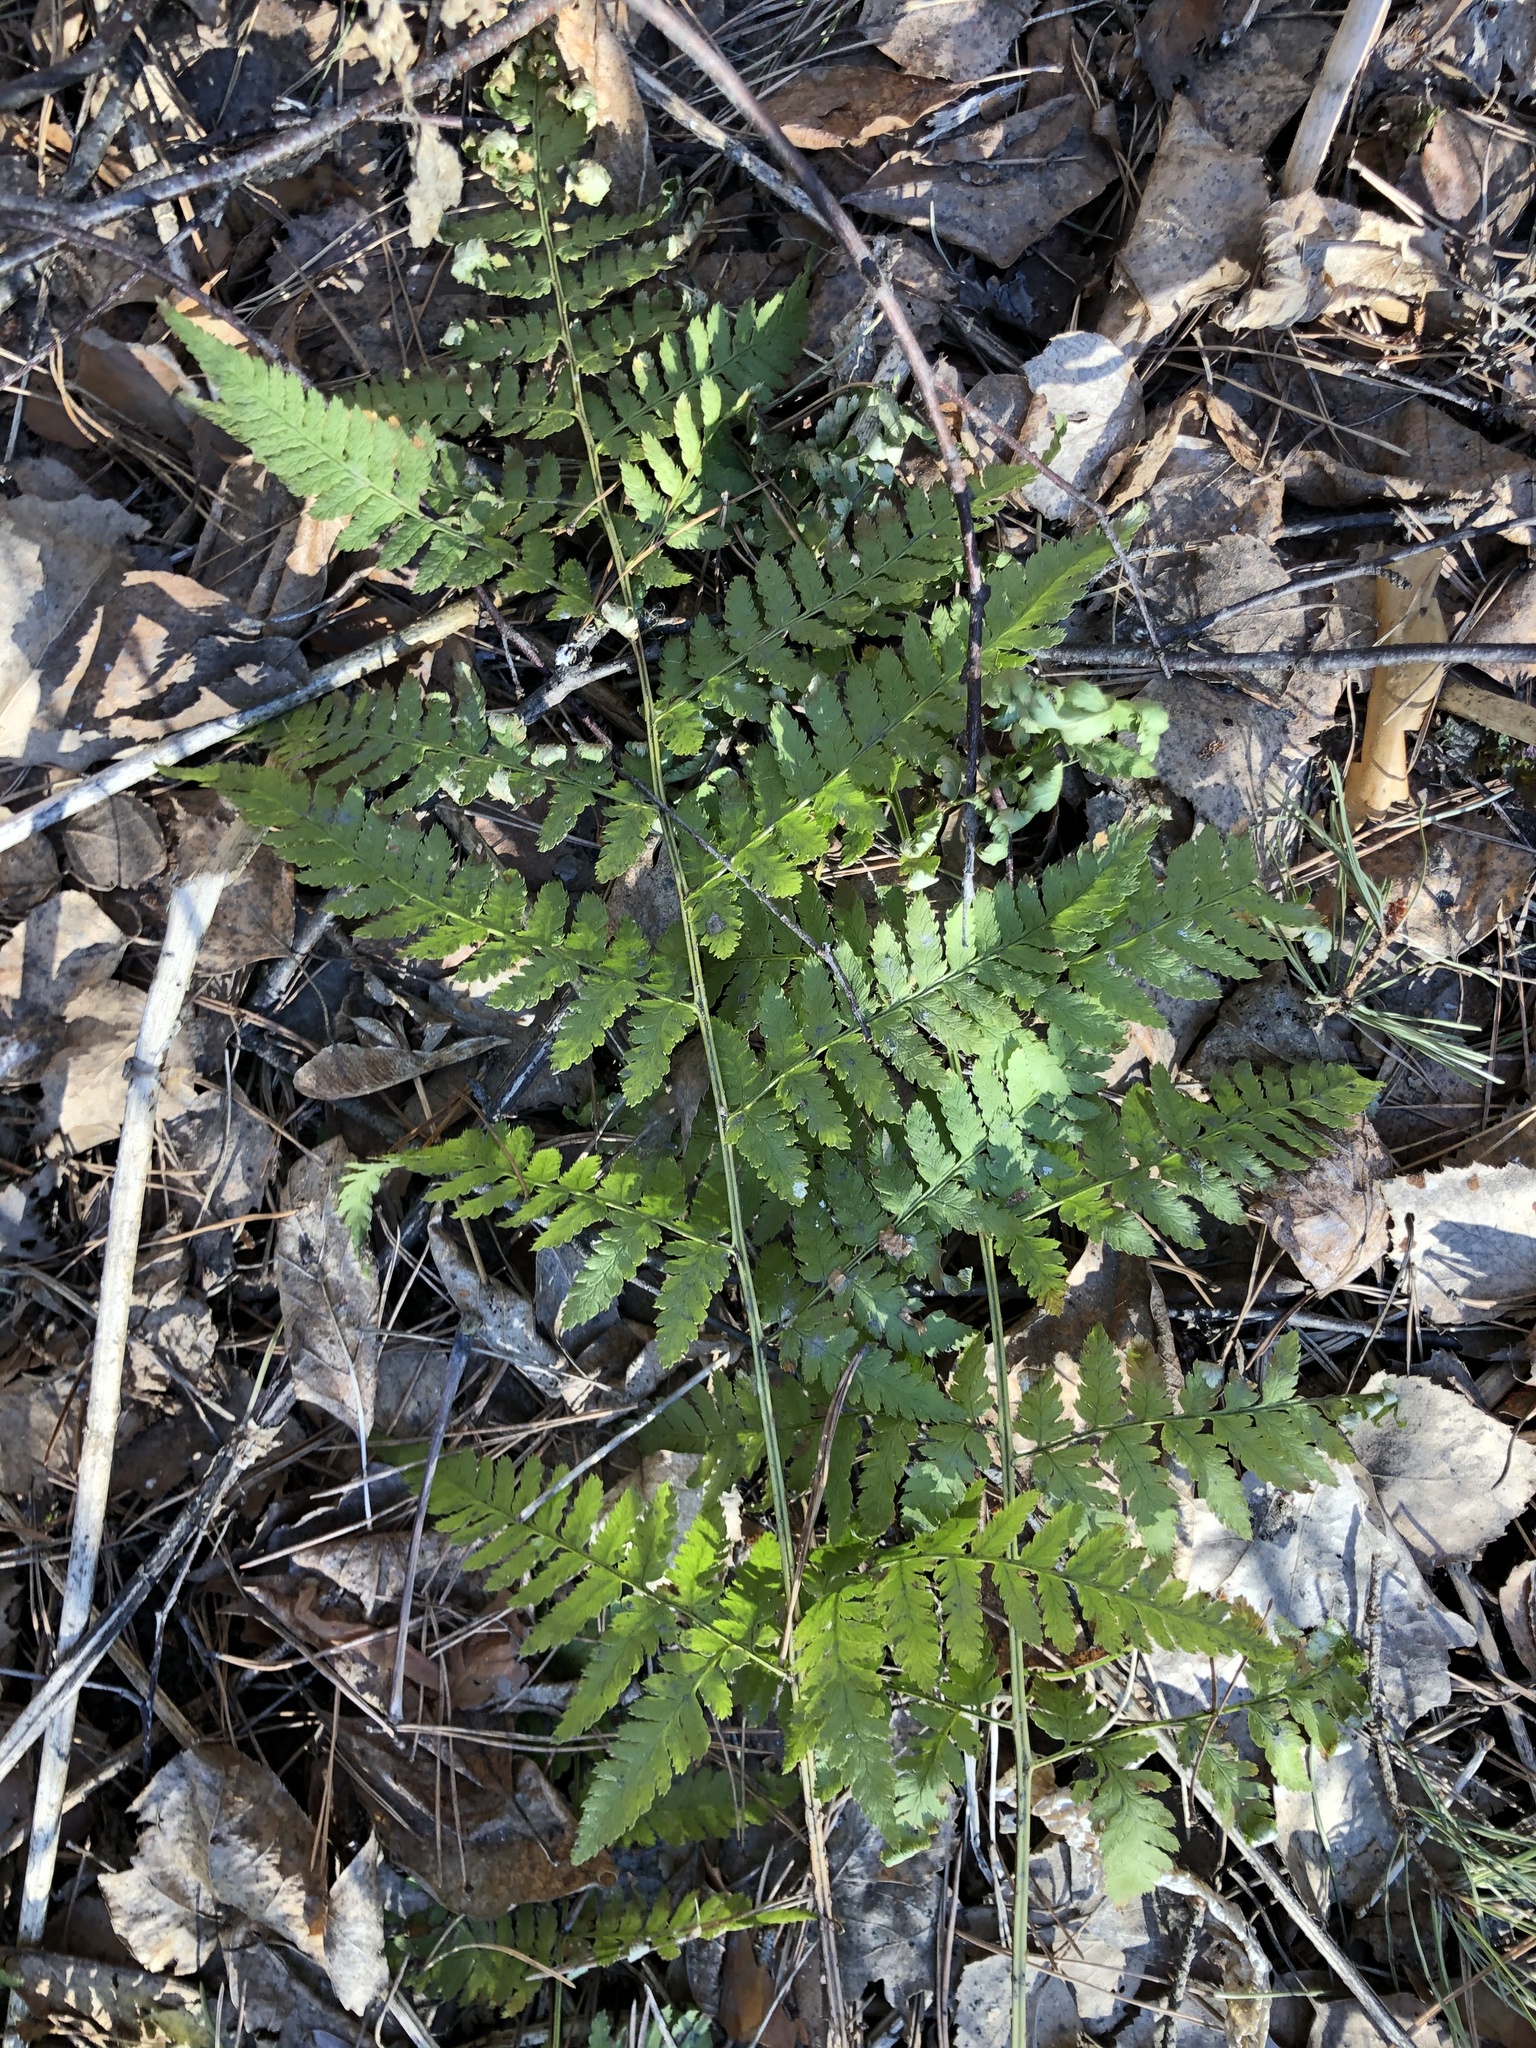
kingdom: Plantae
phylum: Tracheophyta
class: Polypodiopsida
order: Polypodiales
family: Dryopteridaceae
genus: Dryopteris
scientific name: Dryopteris carthusiana
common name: Narrow buckler-fern
